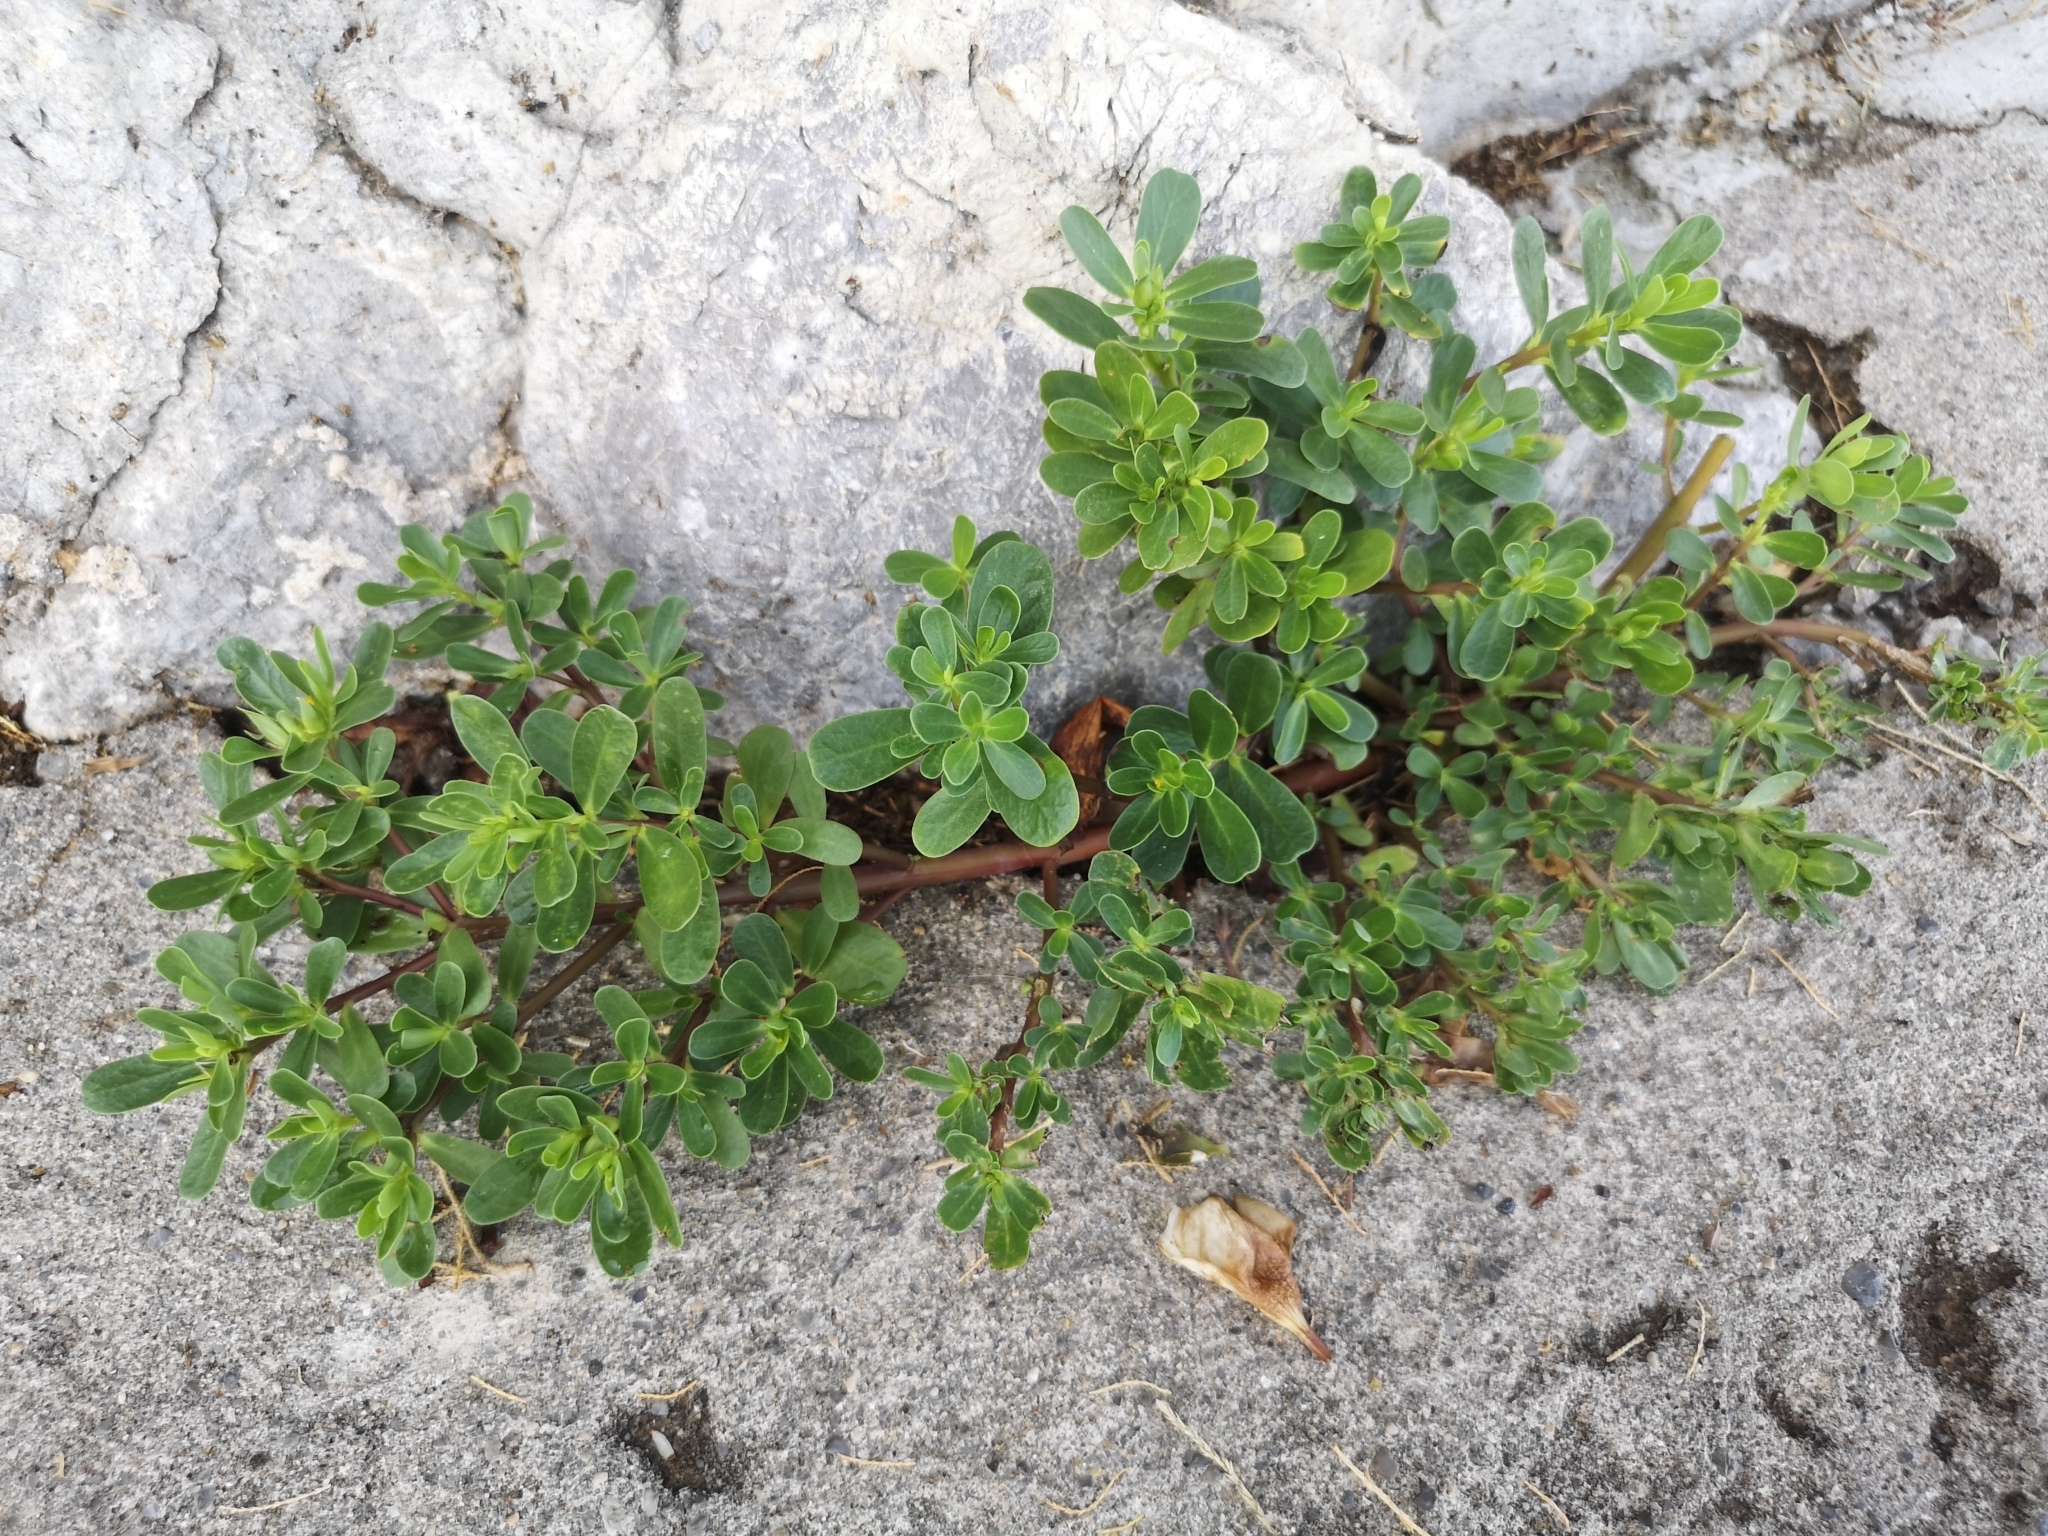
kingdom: Plantae
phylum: Tracheophyta
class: Magnoliopsida
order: Caryophyllales
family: Portulacaceae
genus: Portulaca
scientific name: Portulaca oleracea
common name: Common purslane
